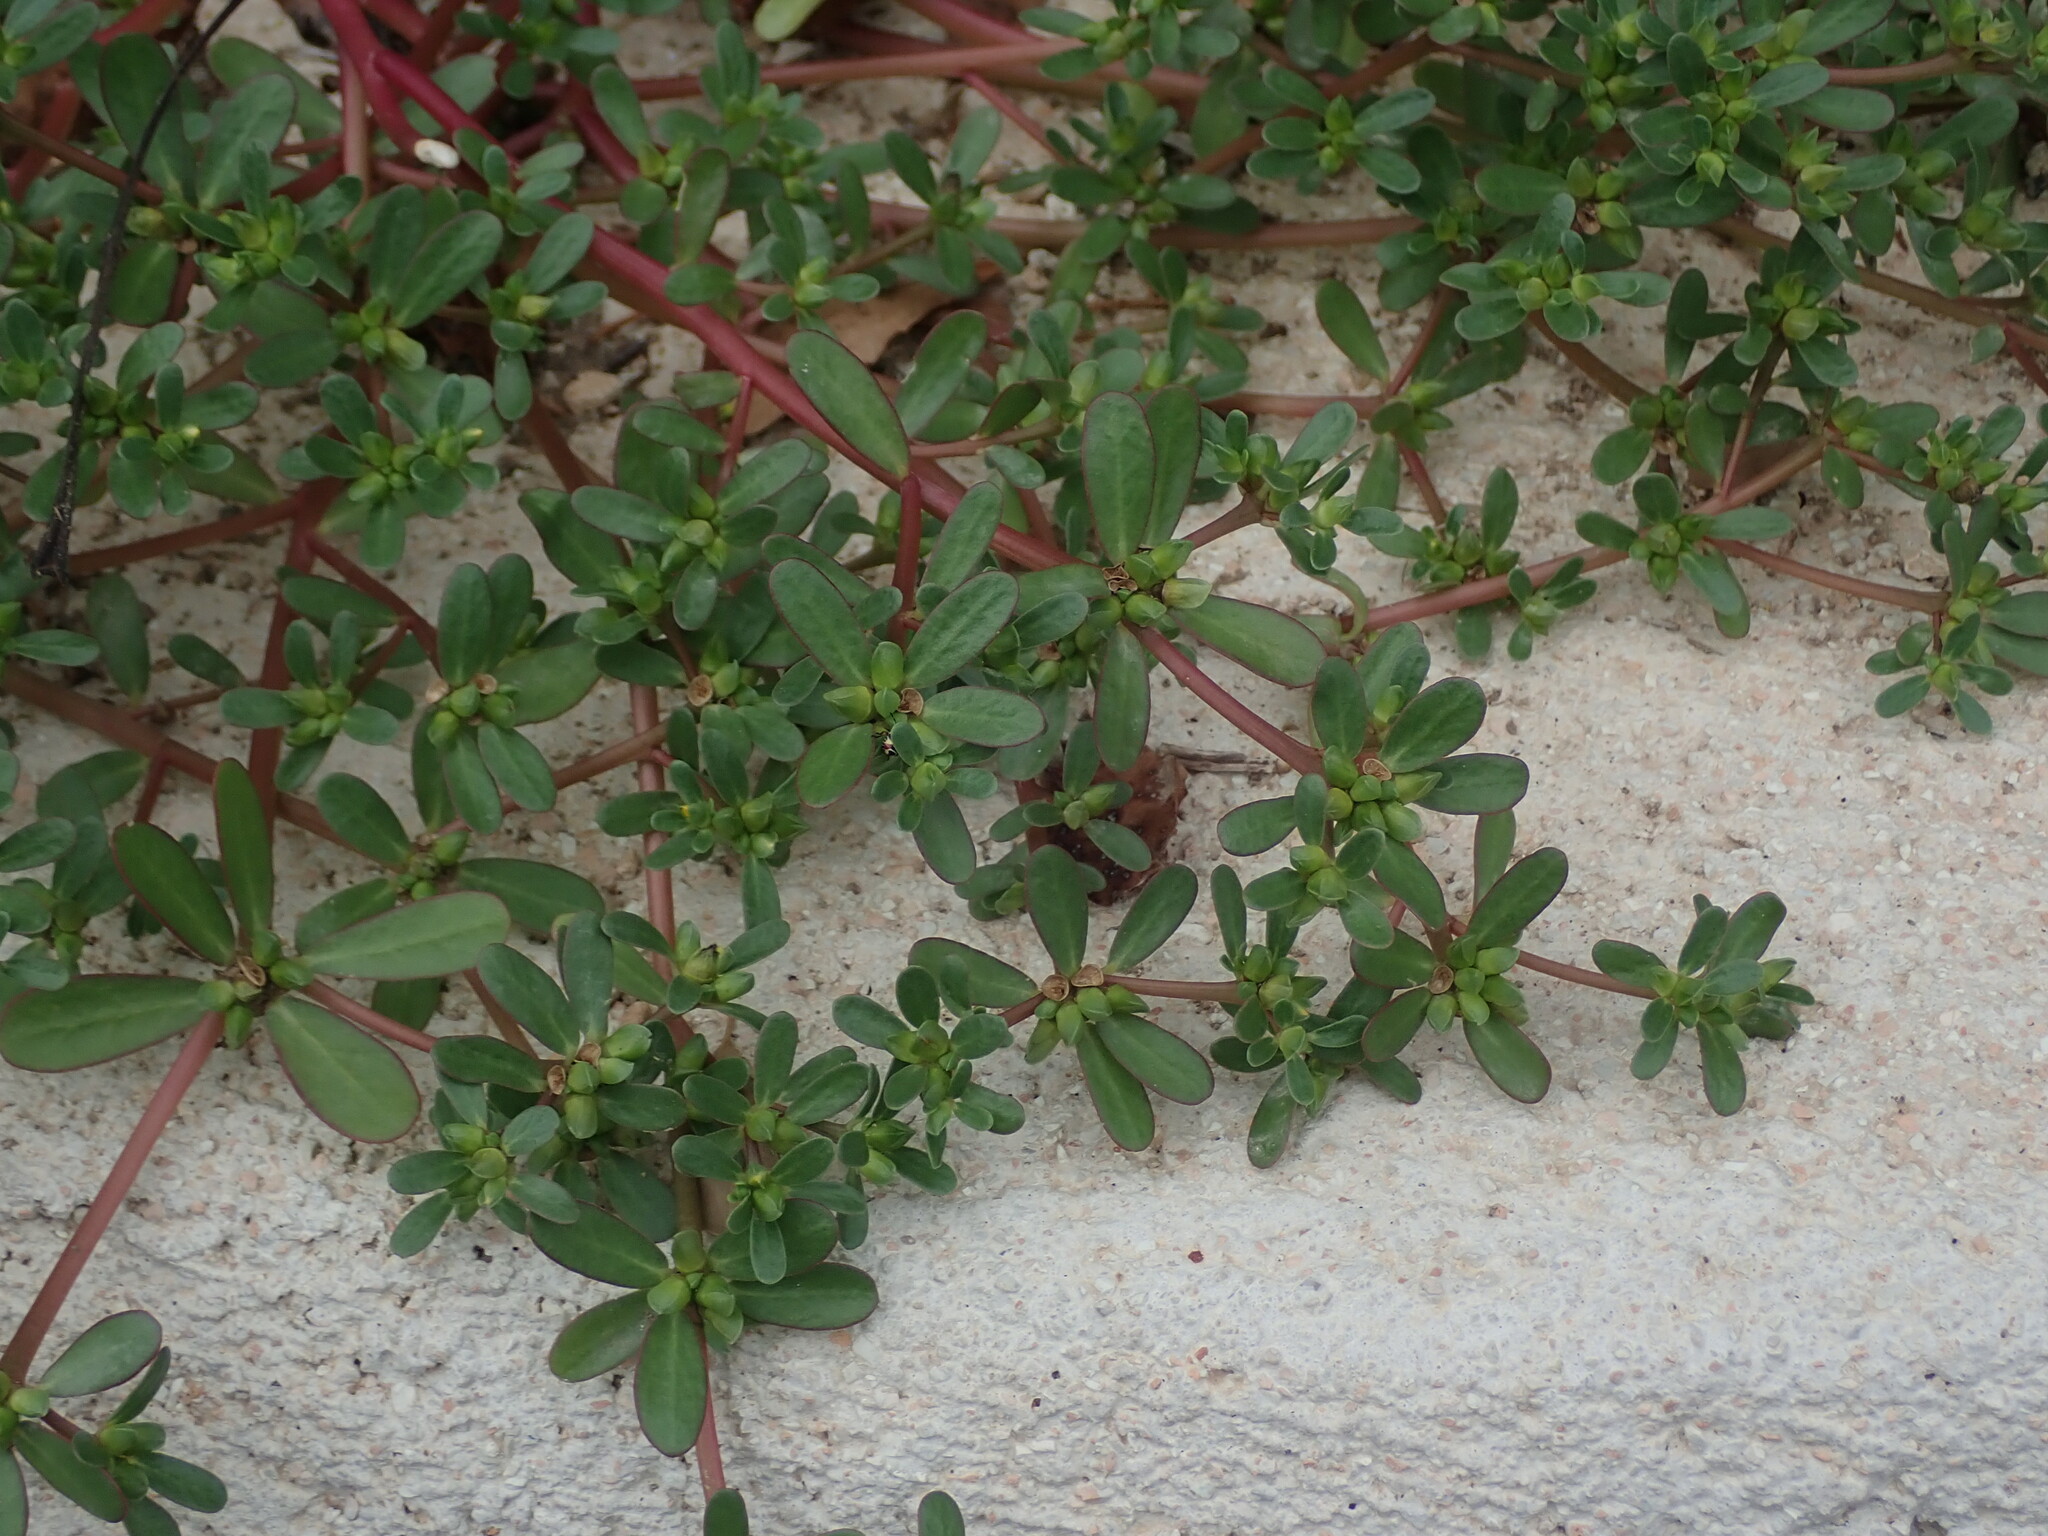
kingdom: Plantae
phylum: Tracheophyta
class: Magnoliopsida
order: Caryophyllales
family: Portulacaceae
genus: Portulaca
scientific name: Portulaca oleracea
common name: Common purslane
